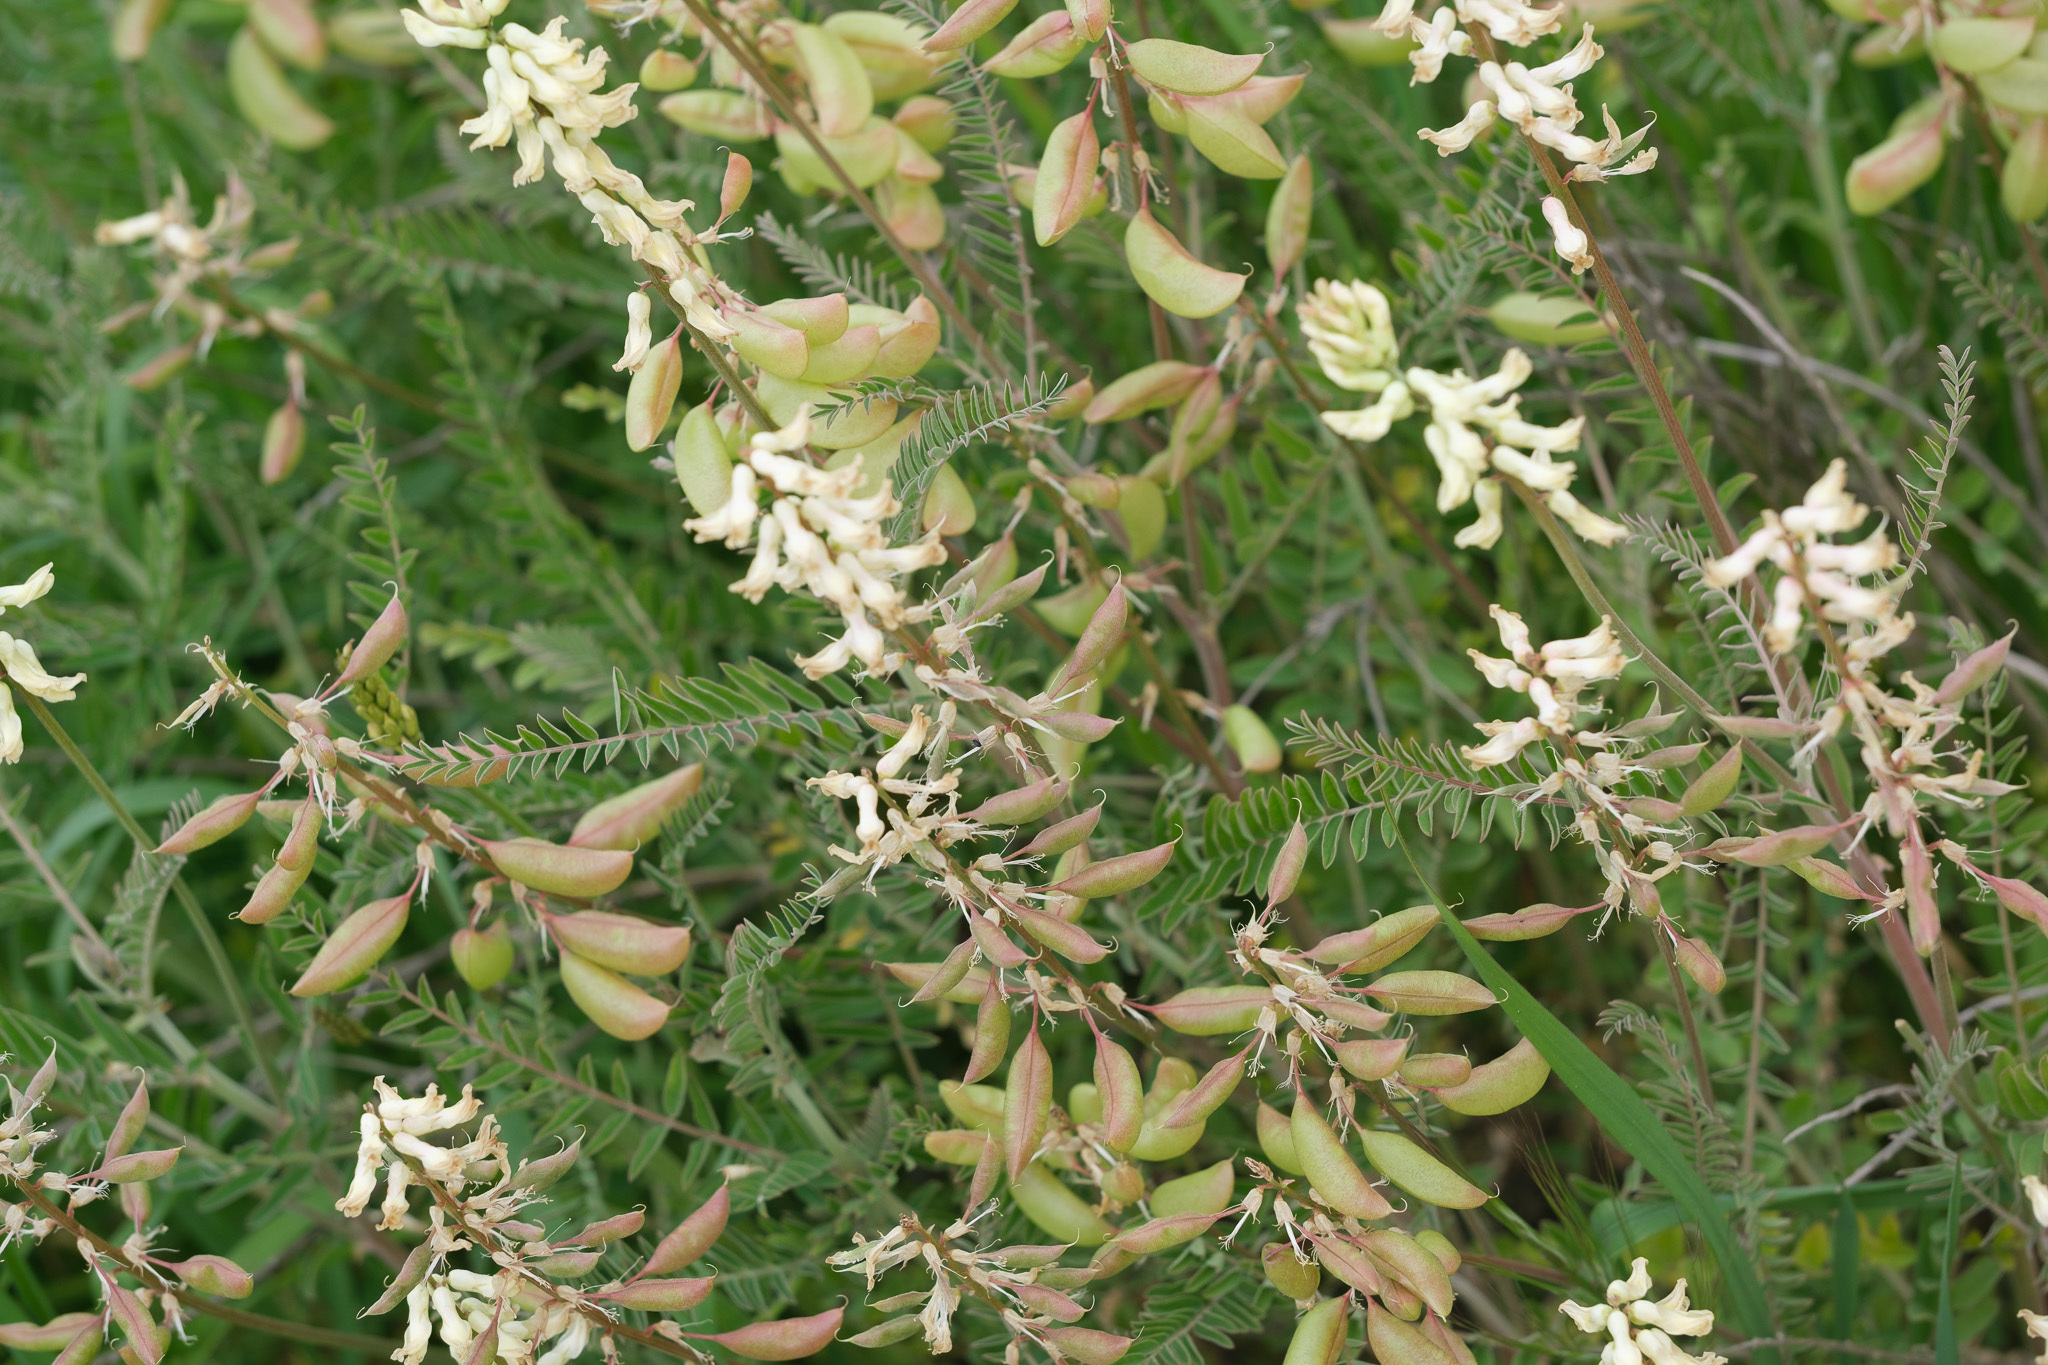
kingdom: Plantae
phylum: Tracheophyta
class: Magnoliopsida
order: Fabales
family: Fabaceae
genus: Astragalus
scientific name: Astragalus trichopodus
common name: Santa barbara milk-vetch
